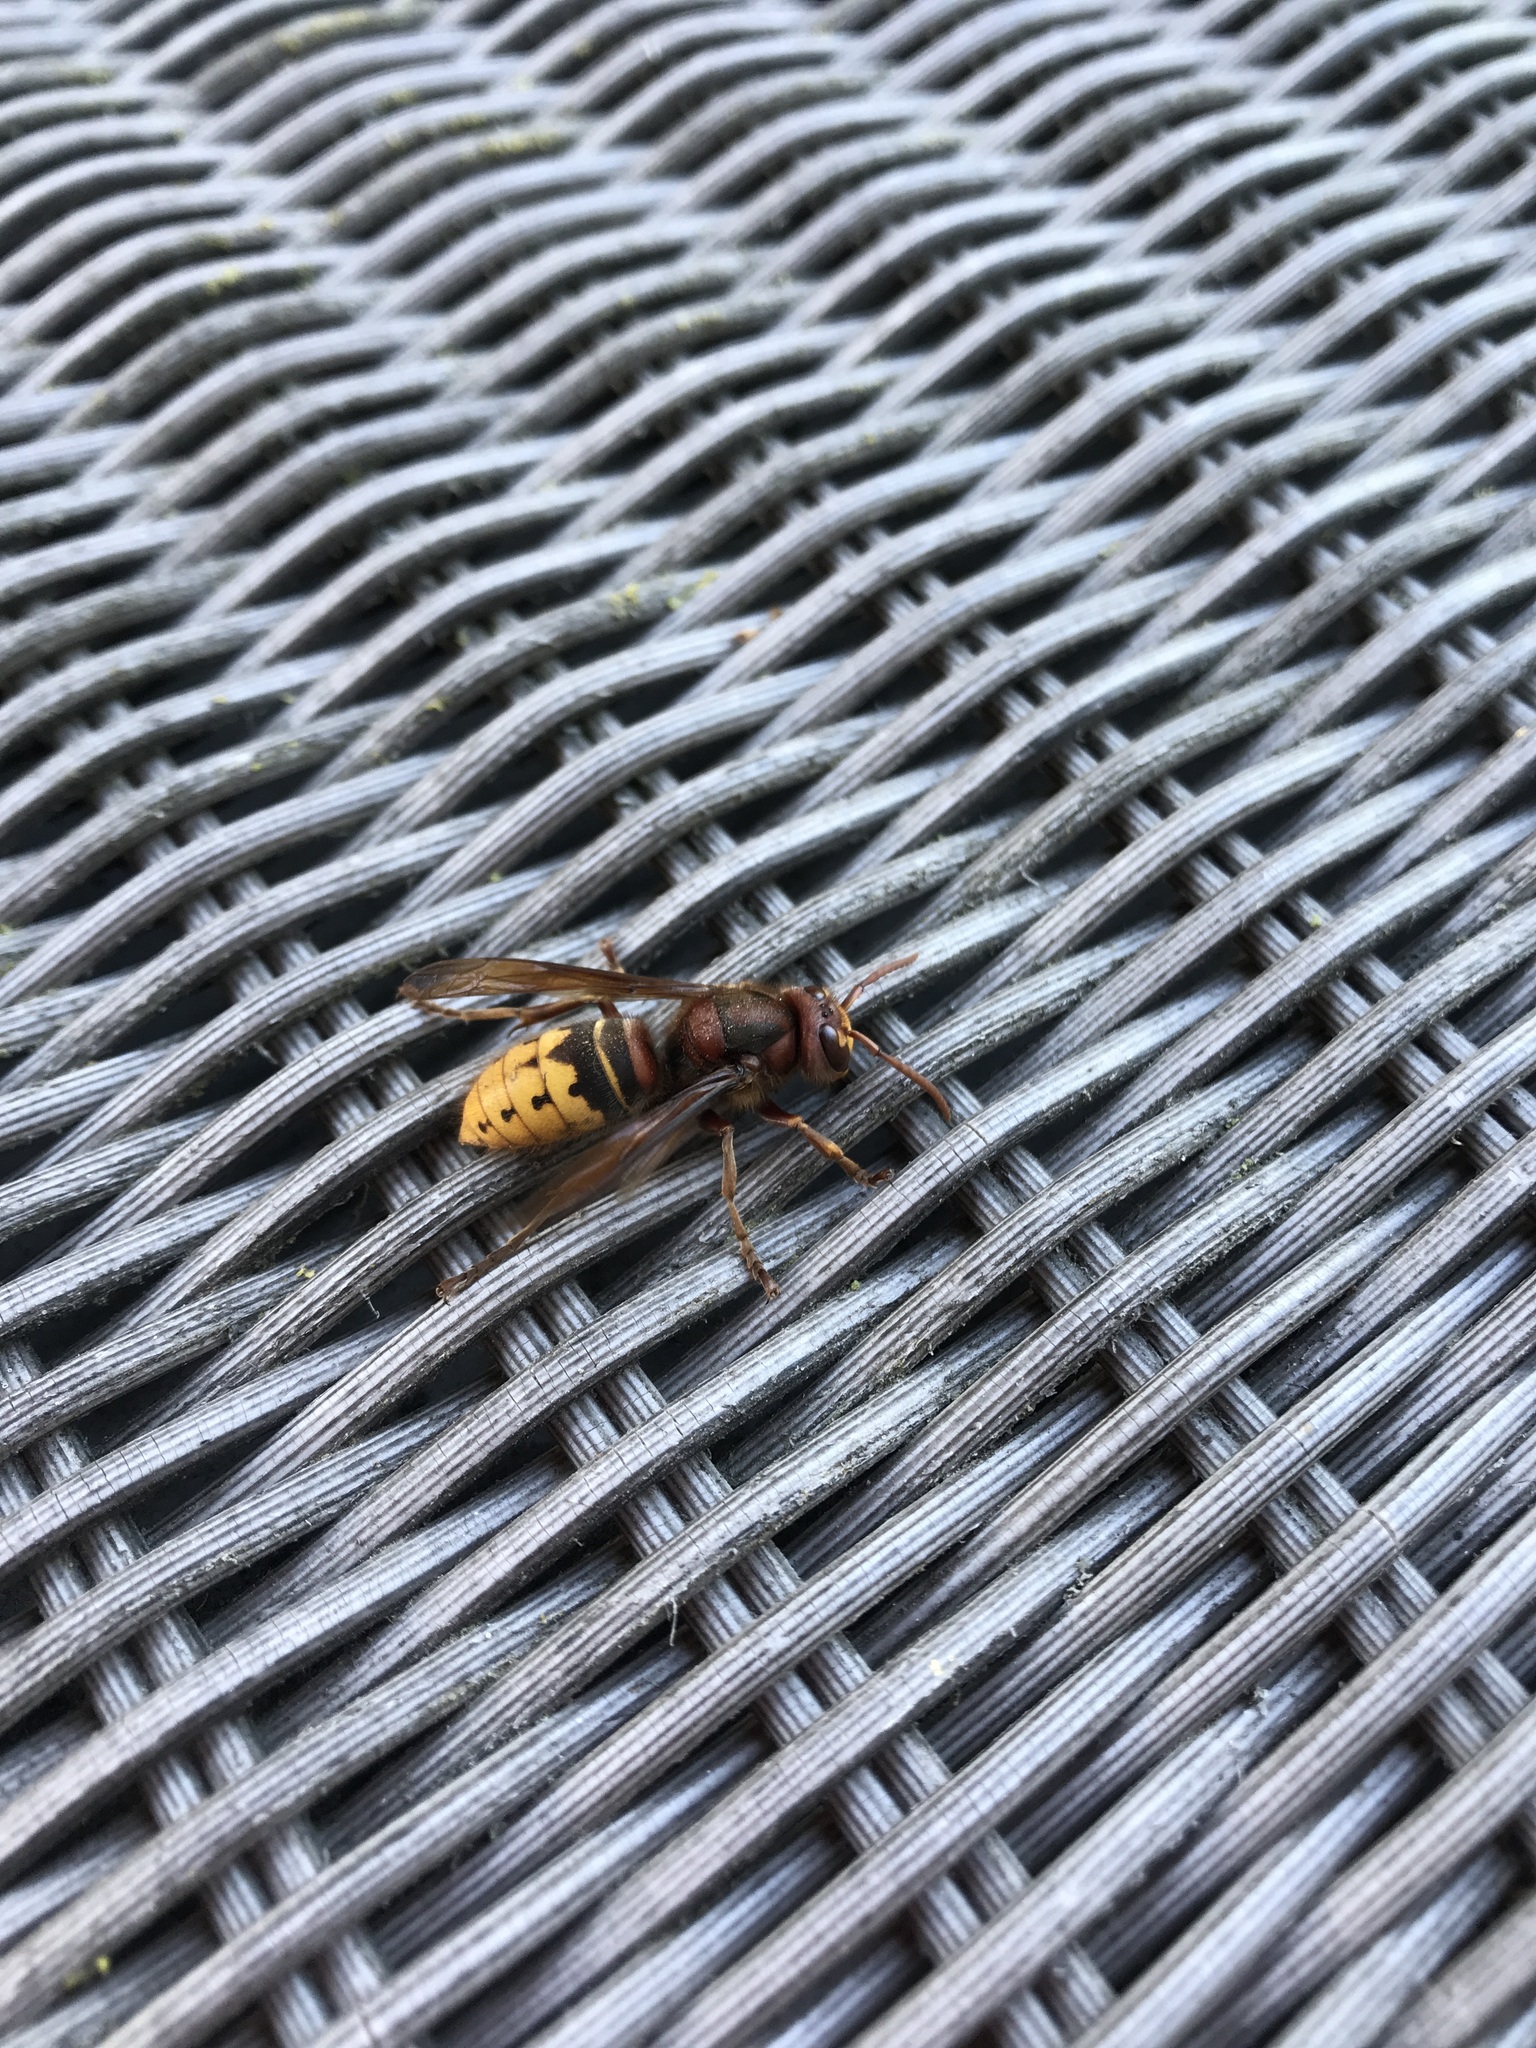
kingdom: Animalia
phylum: Arthropoda
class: Insecta
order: Hymenoptera
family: Vespidae
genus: Vespa
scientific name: Vespa crabro
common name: Hornet
